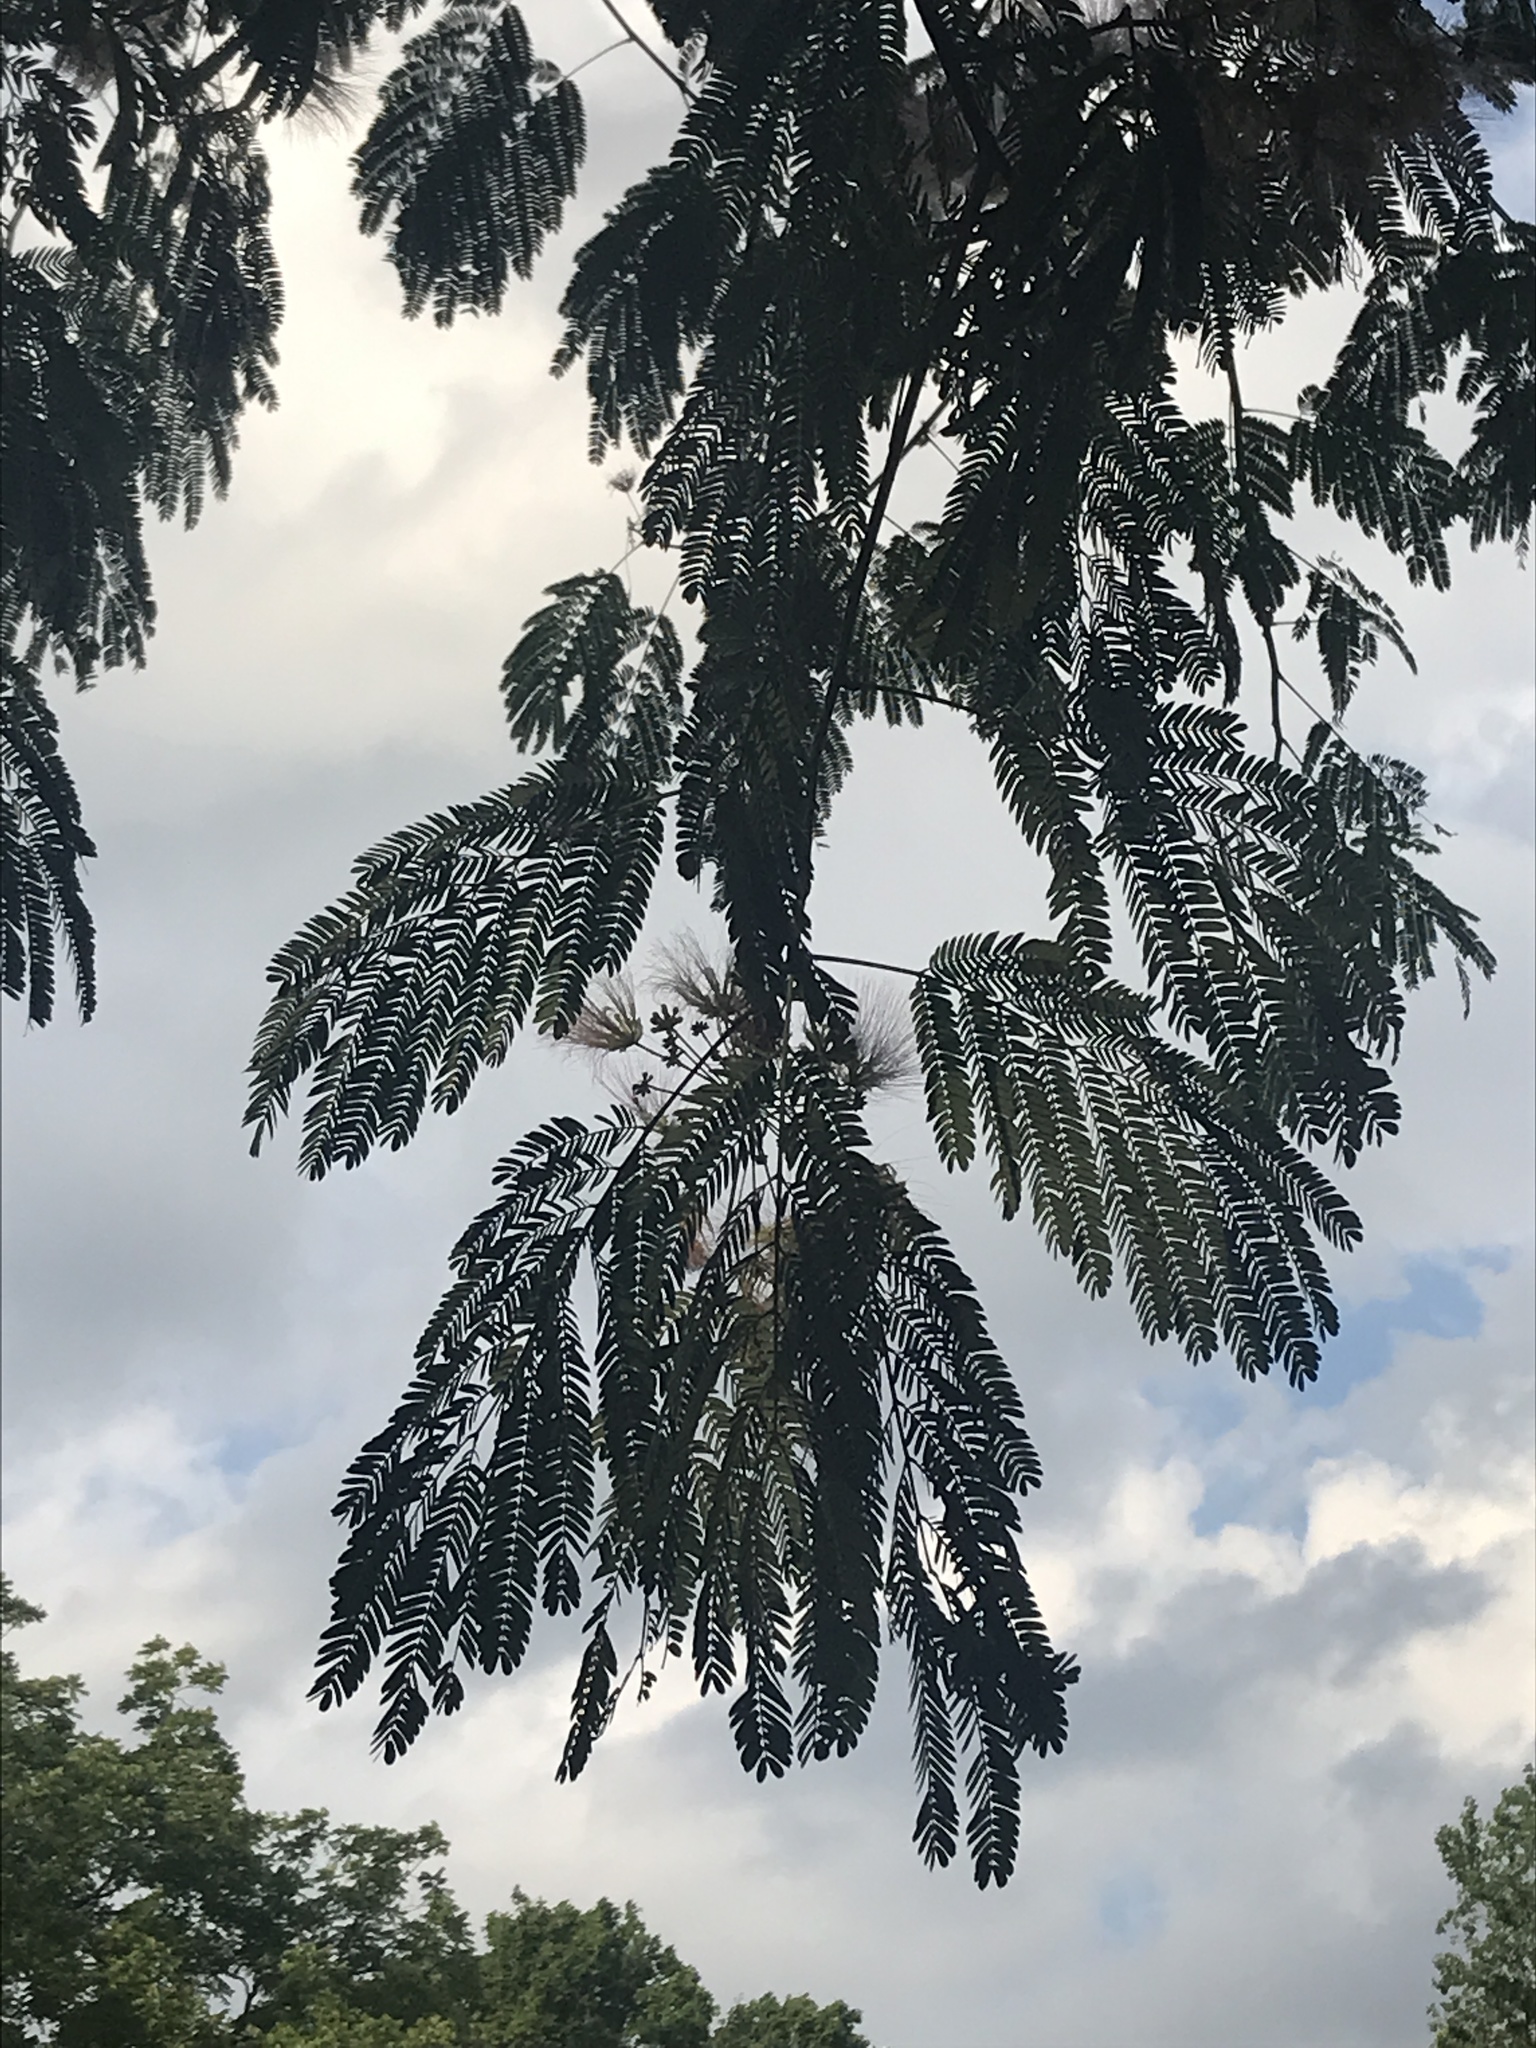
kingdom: Plantae
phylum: Tracheophyta
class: Magnoliopsida
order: Fabales
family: Fabaceae
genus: Albizia
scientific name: Albizia julibrissin
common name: Silktree
